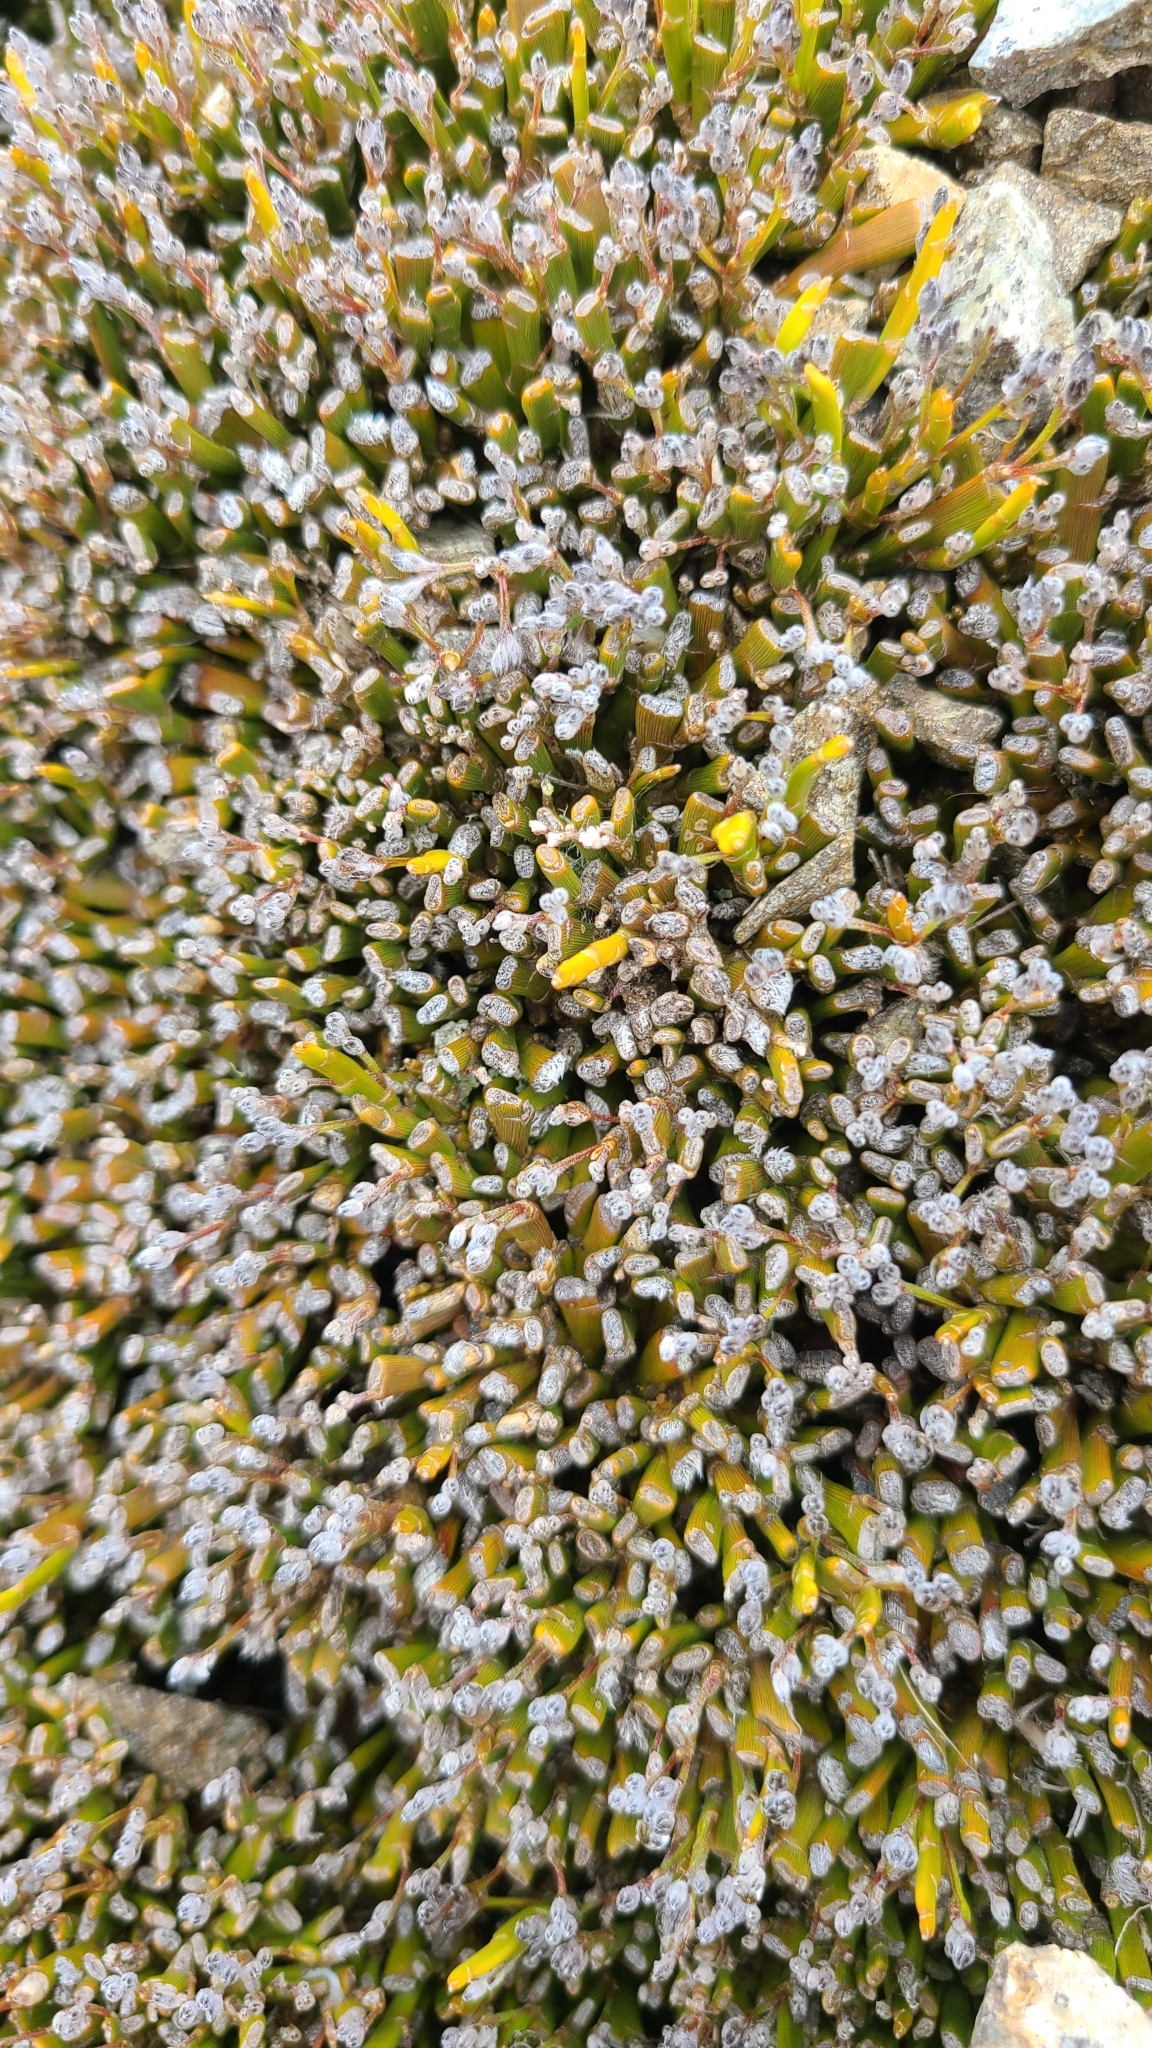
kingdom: Plantae
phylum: Tracheophyta
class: Magnoliopsida
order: Fabales
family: Fabaceae
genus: Carmichaelia
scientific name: Carmichaelia monroi
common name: Stout dwarf broom
